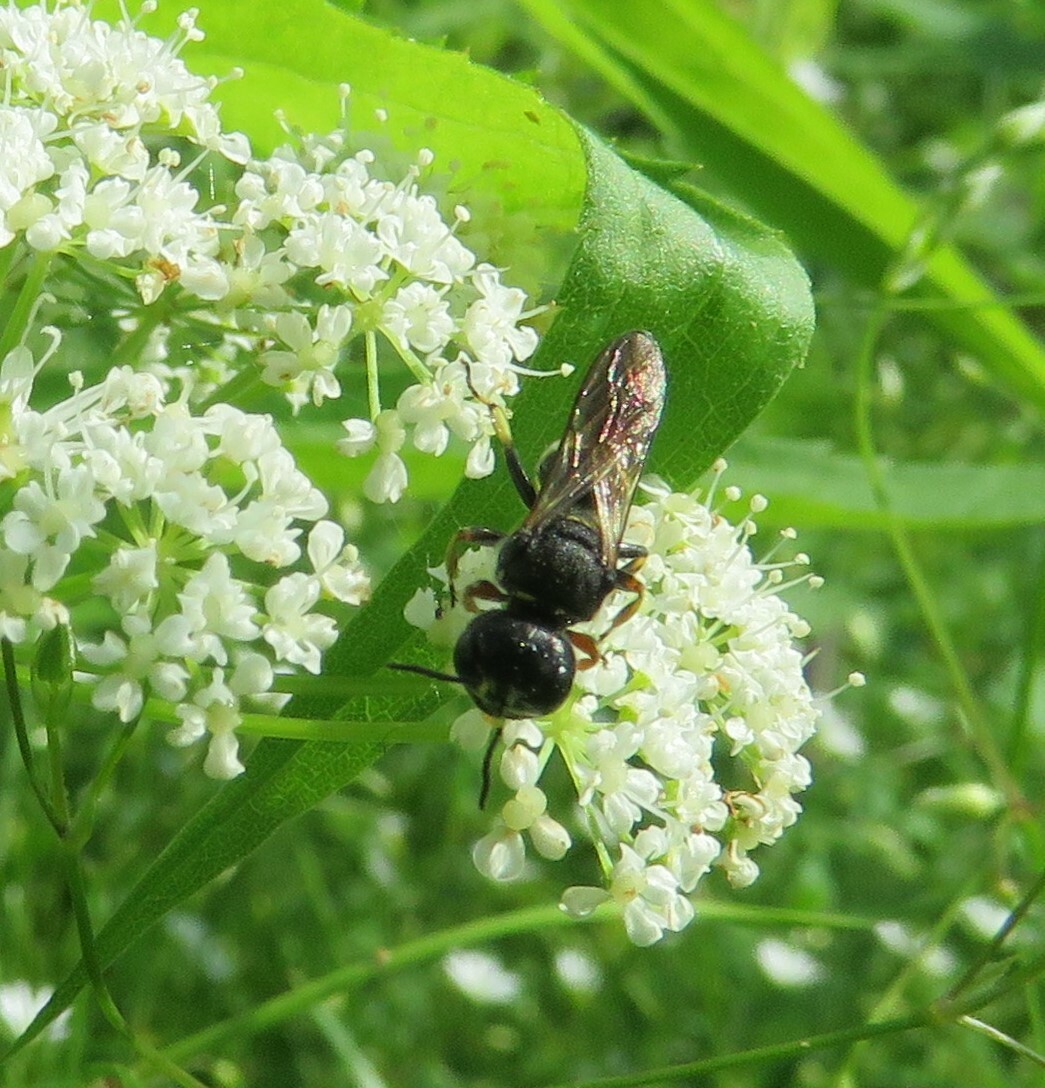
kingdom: Animalia
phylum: Arthropoda
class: Insecta
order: Hymenoptera
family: Crabronidae
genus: Ectemnius
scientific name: Ectemnius continuus
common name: Common ectemnius
